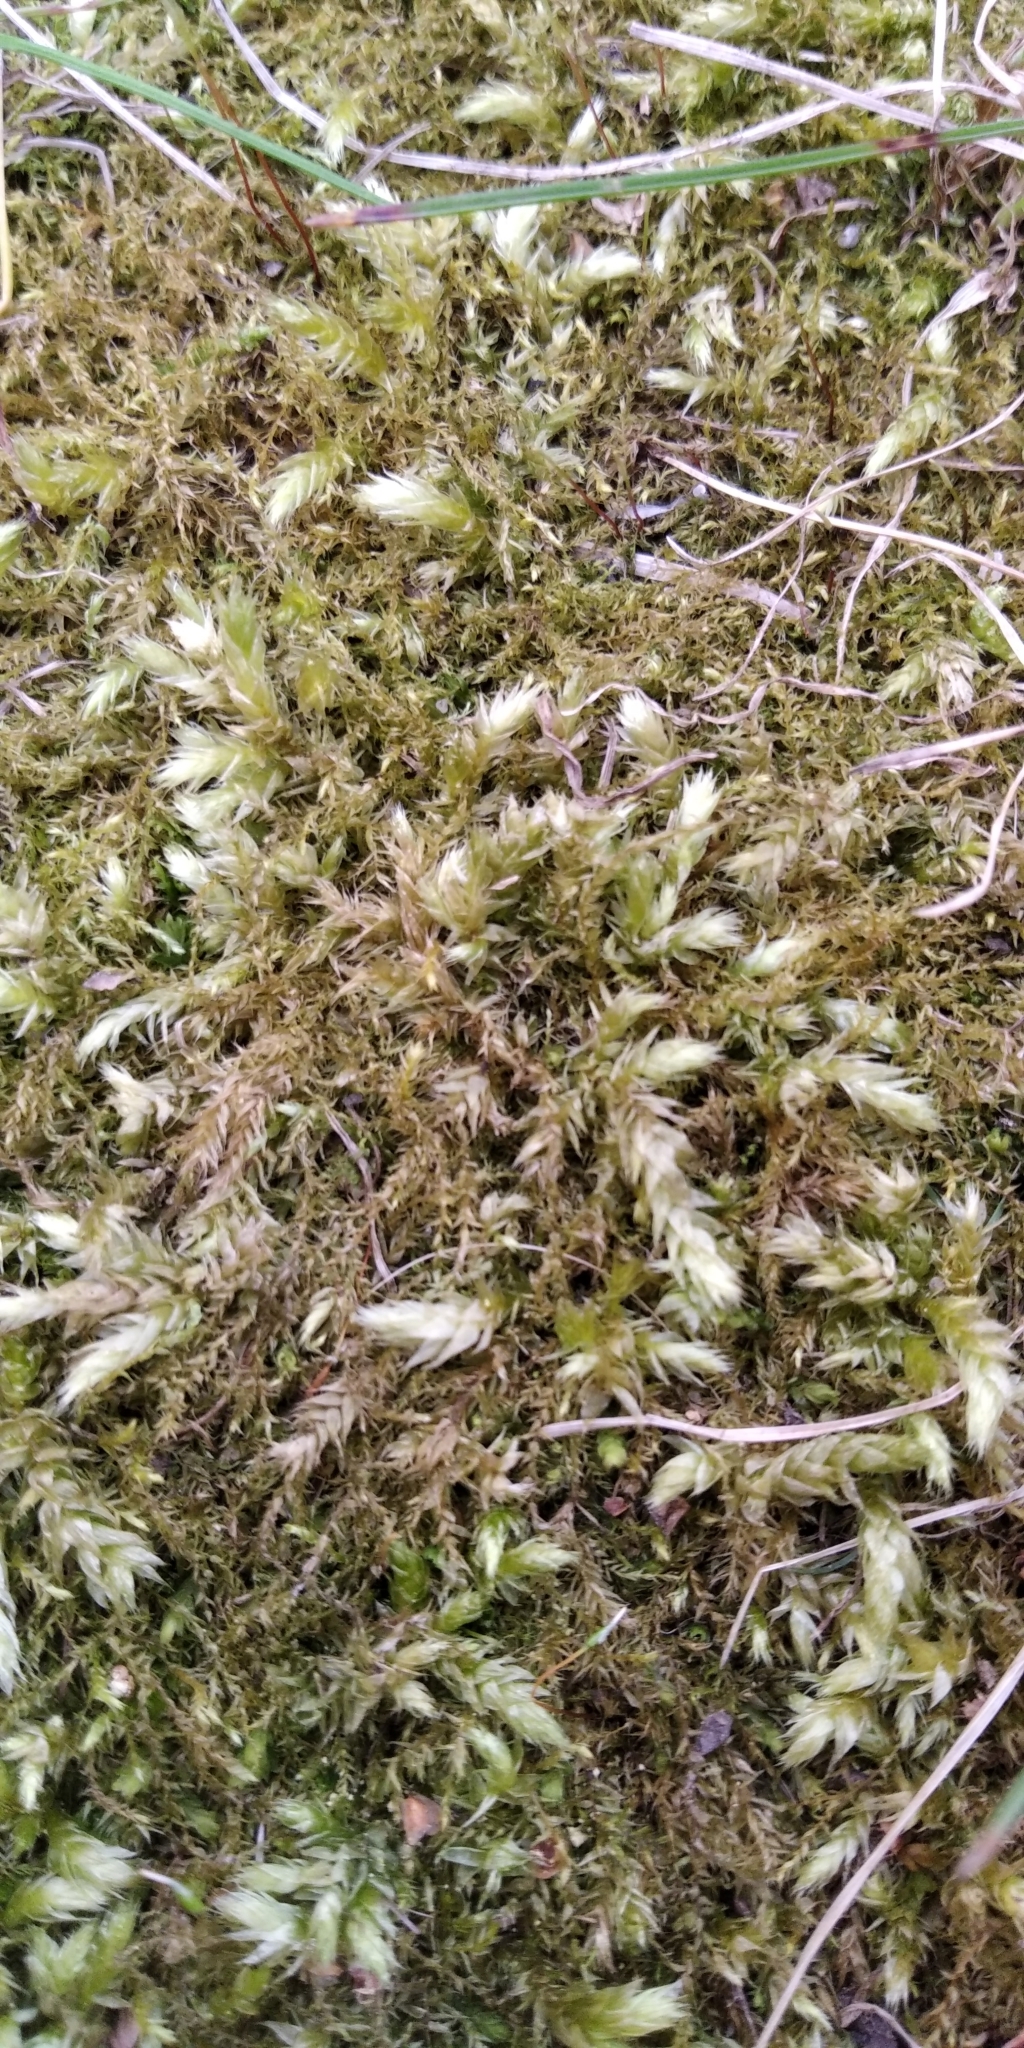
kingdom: Plantae
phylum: Bryophyta
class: Bryopsida
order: Hypnales
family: Brachytheciaceae
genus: Brachythecium
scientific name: Brachythecium rutabulum
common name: Rough-stalked feather-moss
